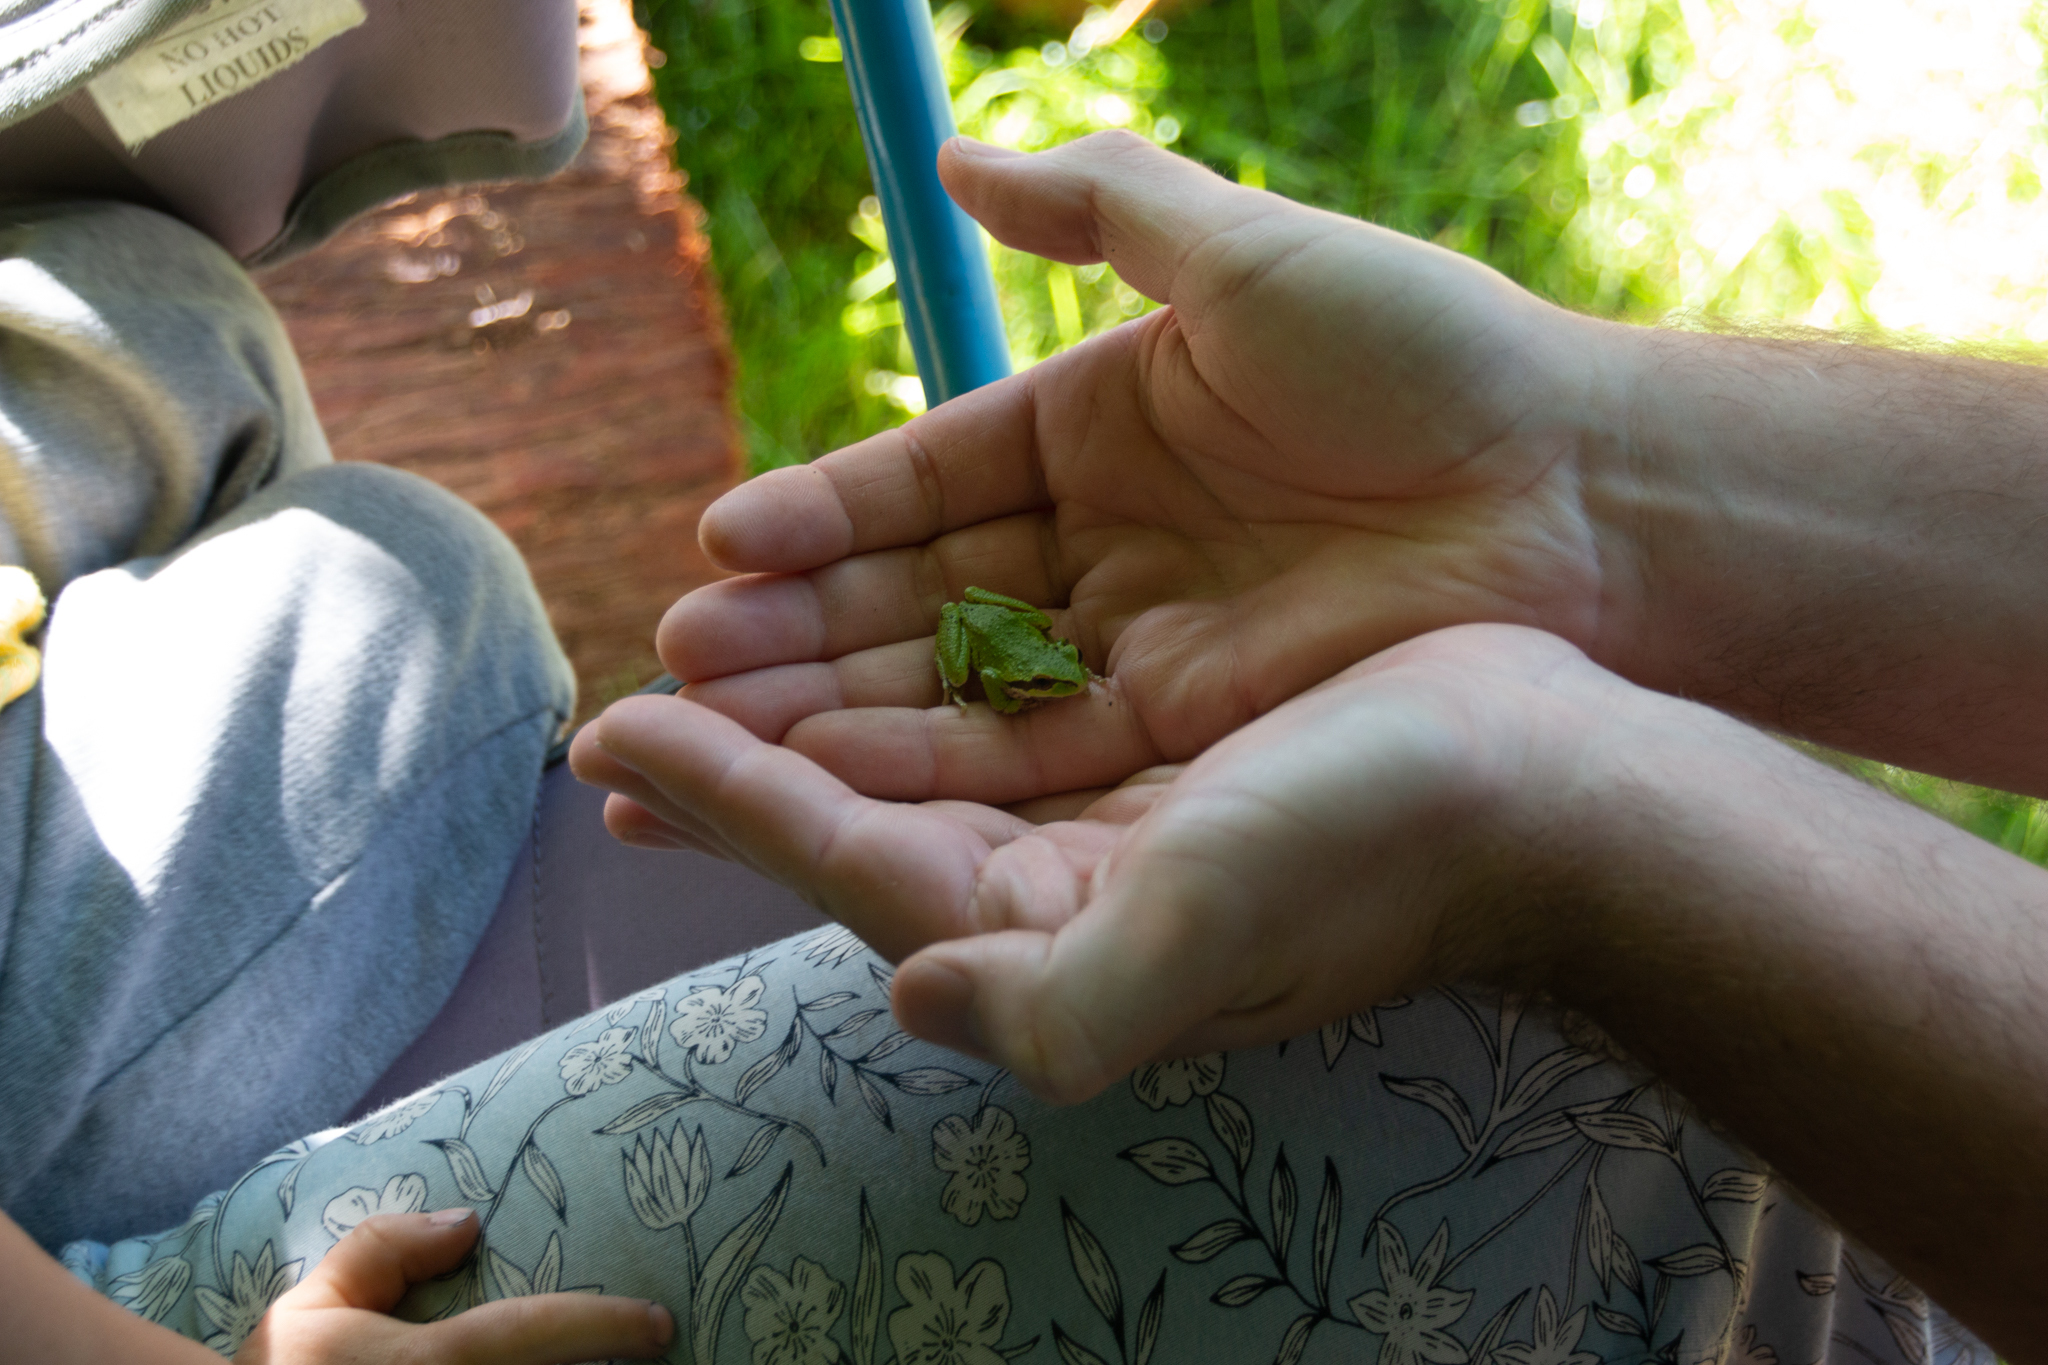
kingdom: Animalia
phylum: Chordata
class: Amphibia
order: Anura
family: Hylidae
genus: Pseudacris
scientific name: Pseudacris regilla
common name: Pacific chorus frog
